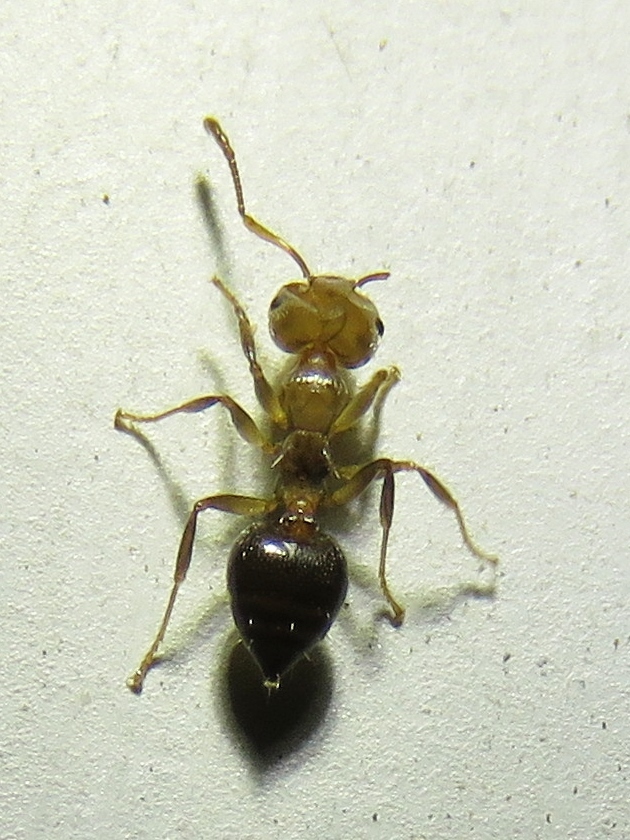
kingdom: Animalia
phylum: Arthropoda
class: Insecta
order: Hymenoptera
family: Formicidae
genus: Crematogaster
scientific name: Crematogaster laeviuscula
